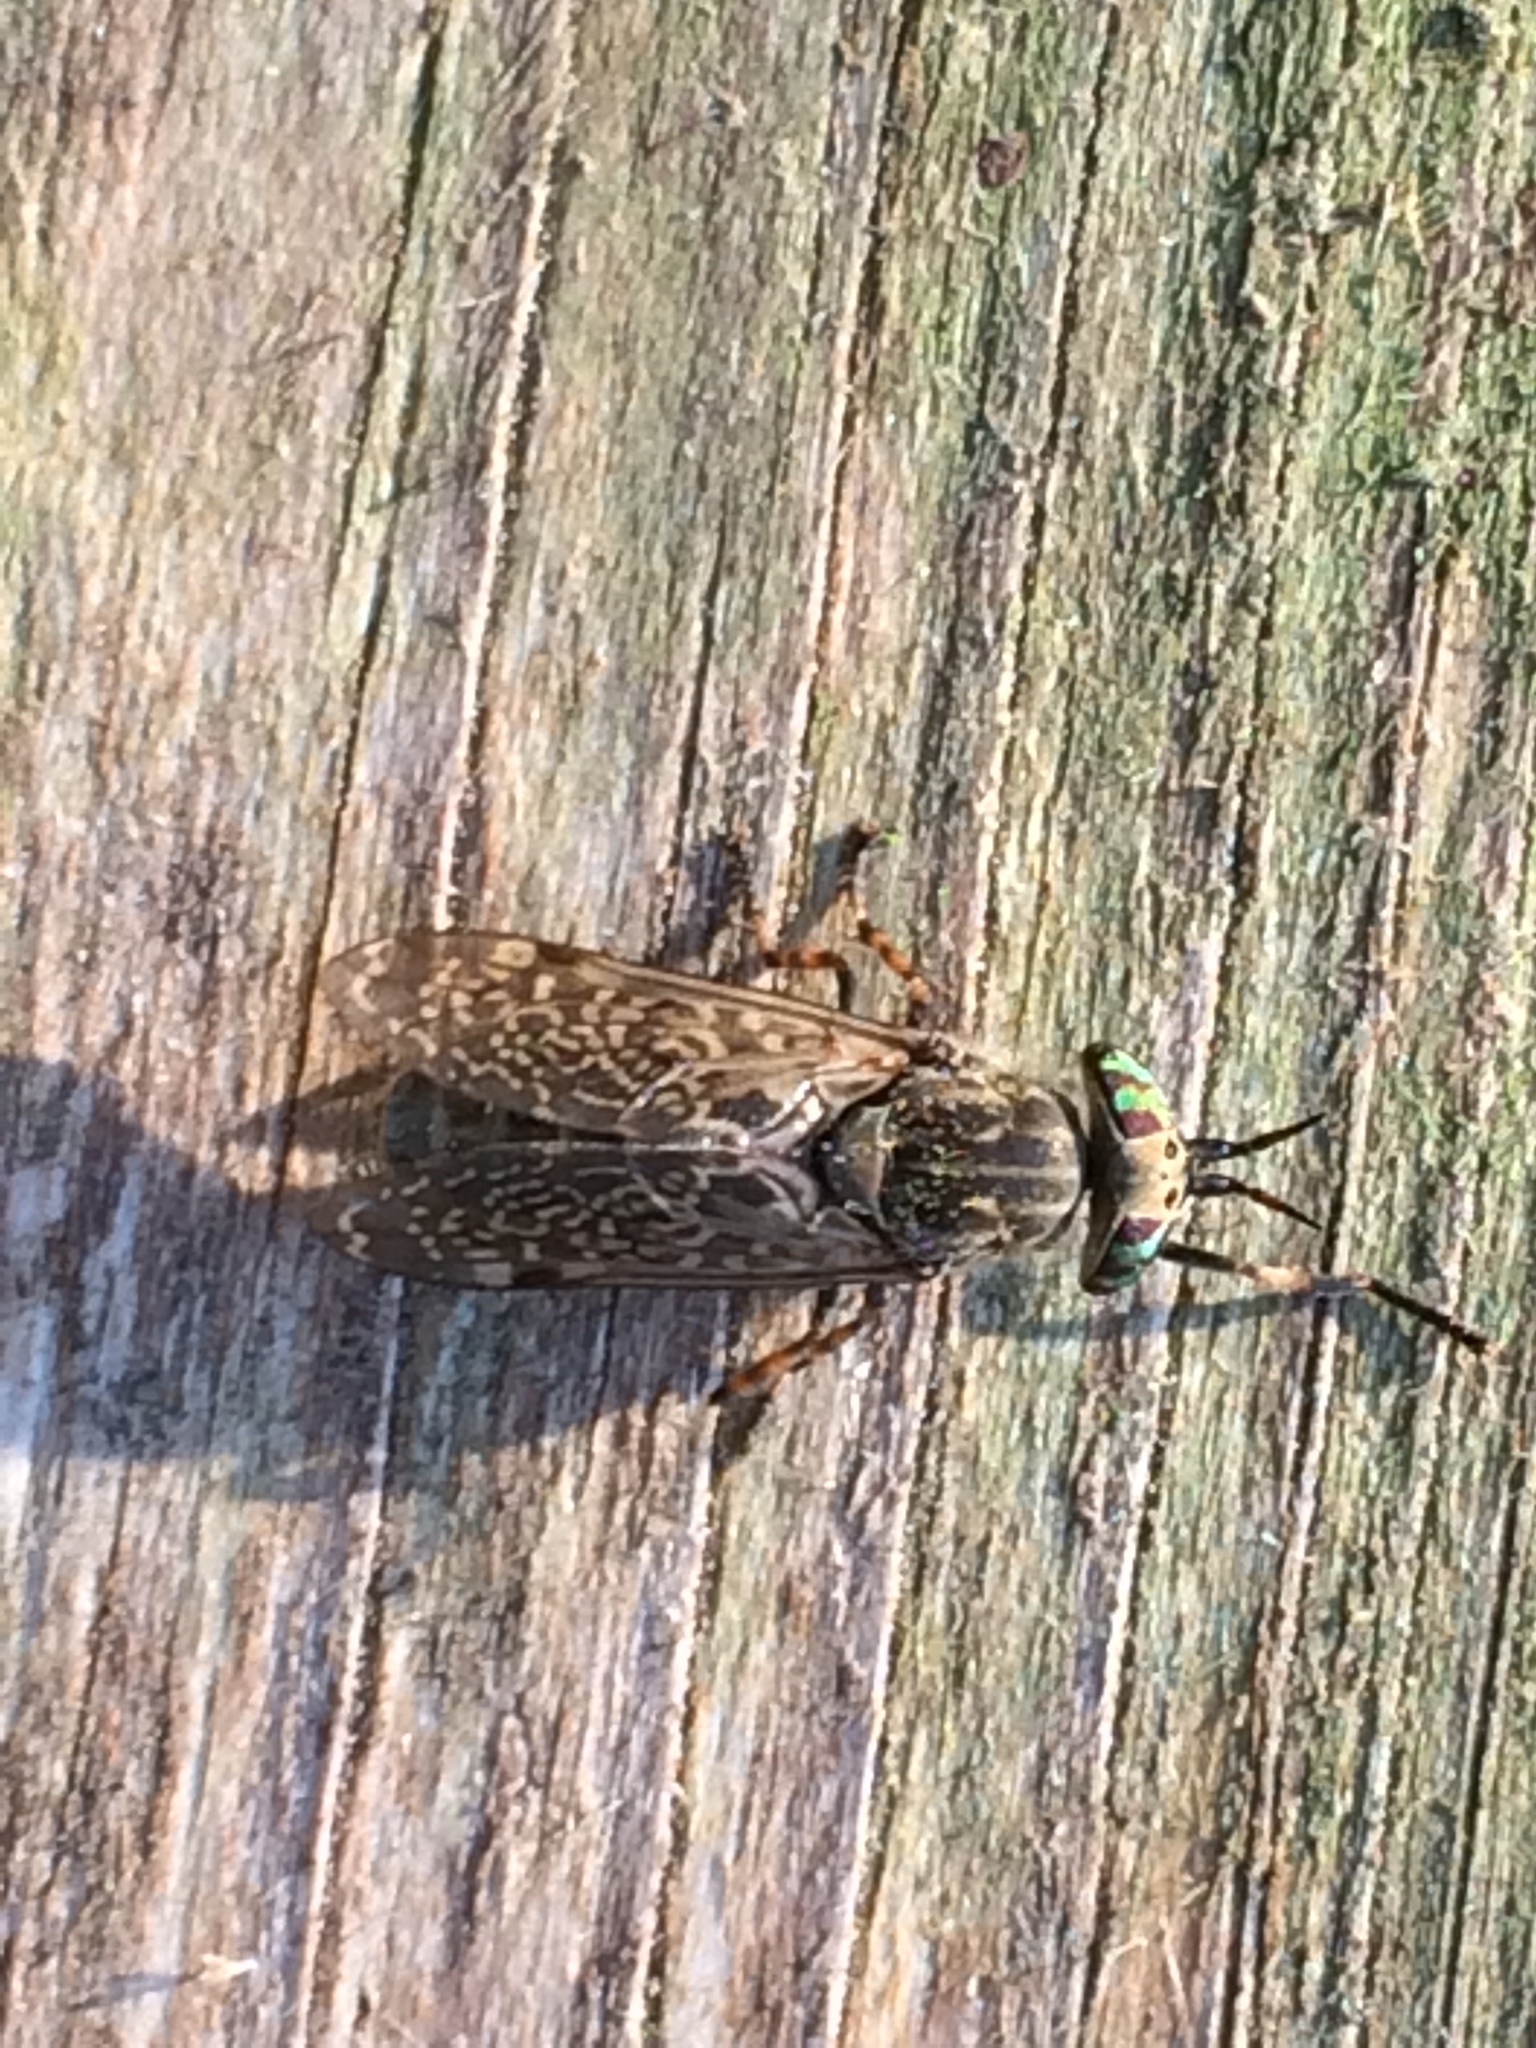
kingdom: Animalia
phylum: Arthropoda
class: Insecta
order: Diptera
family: Tabanidae
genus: Haematopota
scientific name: Haematopota pluvialis
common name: Common horse fly
